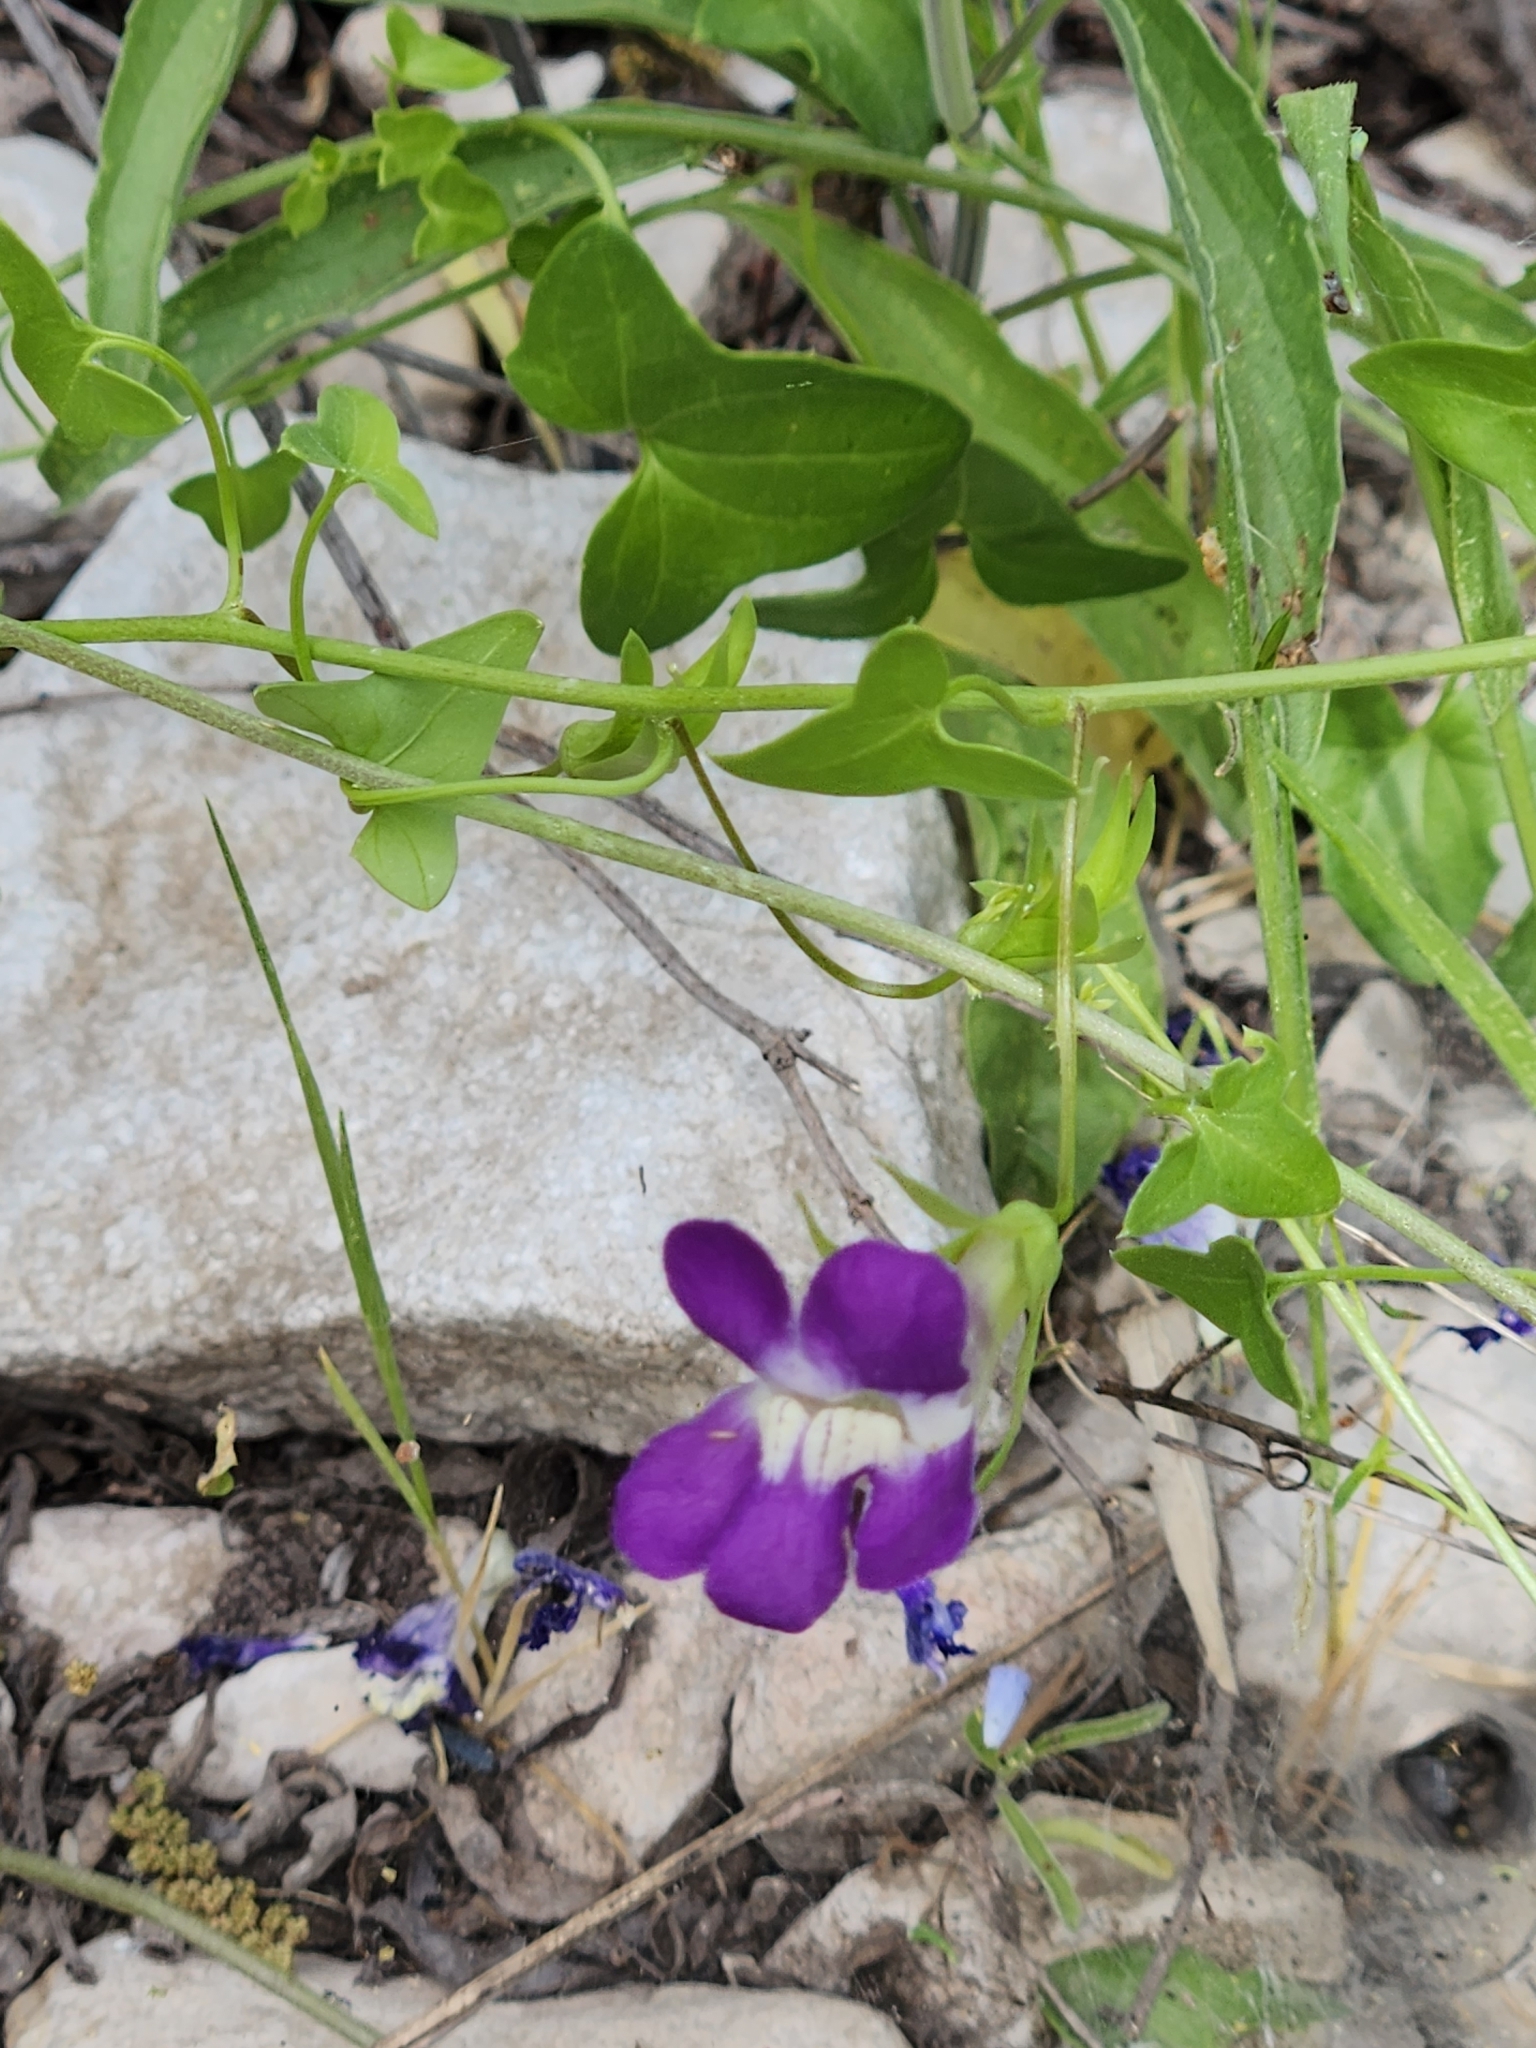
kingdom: Plantae
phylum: Tracheophyta
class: Magnoliopsida
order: Lamiales
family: Plantaginaceae
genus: Maurandella
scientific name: Maurandella antirrhiniflora
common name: Violet twining-snapdragon
